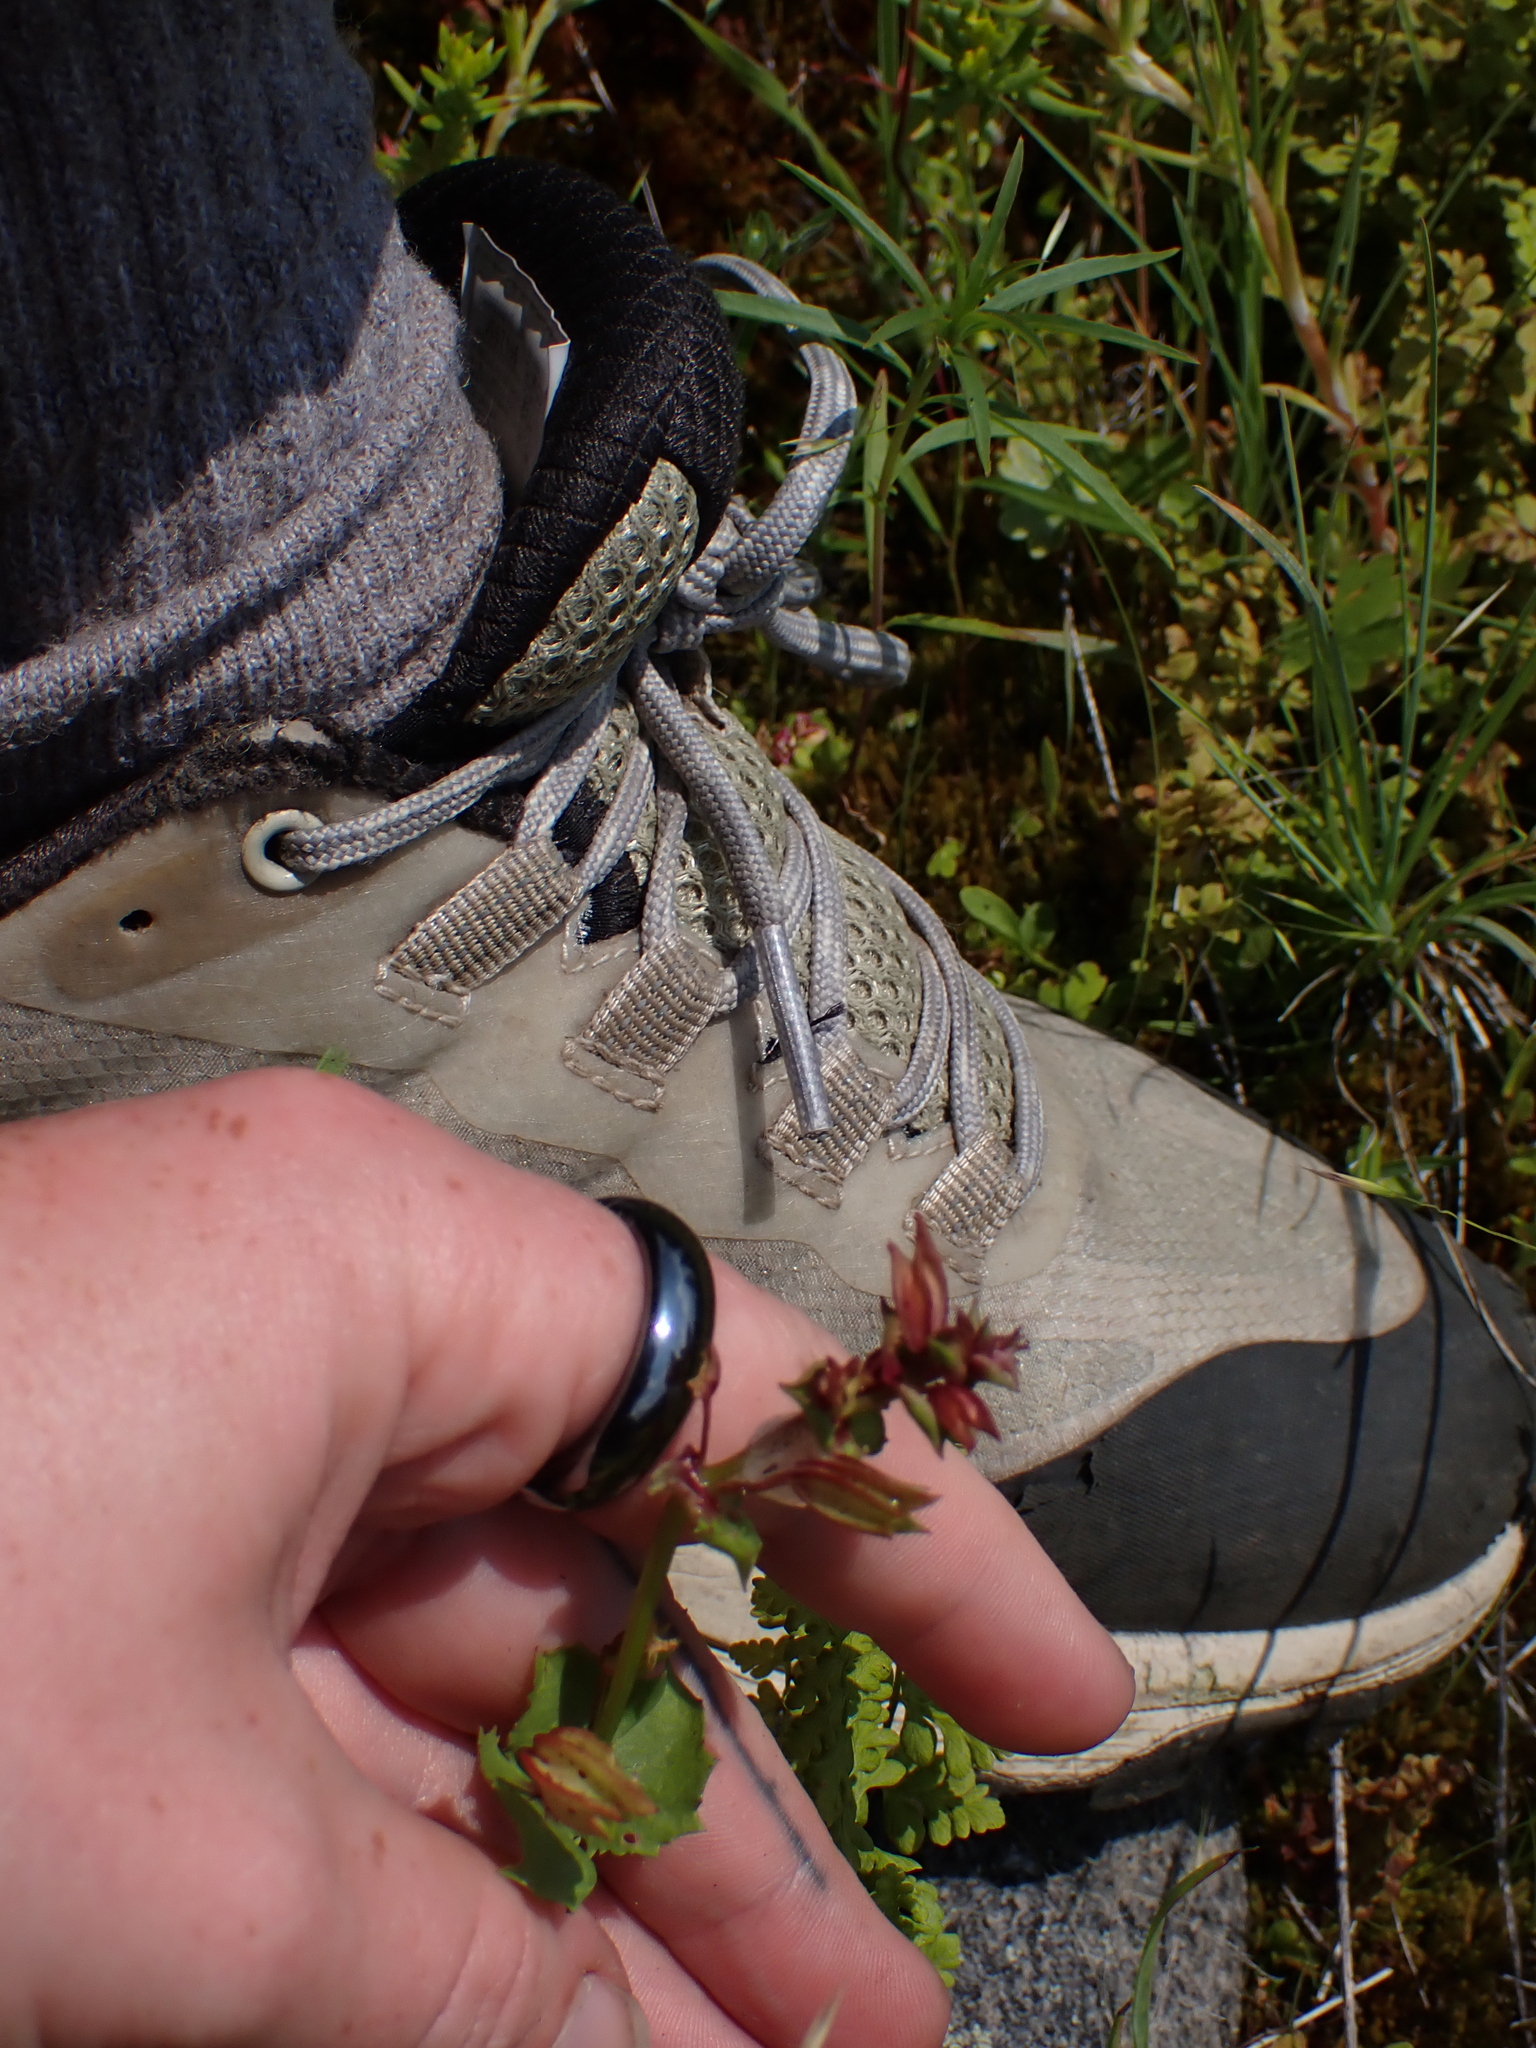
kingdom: Plantae
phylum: Tracheophyta
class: Magnoliopsida
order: Lamiales
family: Phrymaceae
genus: Erythranthe
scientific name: Erythranthe nasuta
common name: Sooke monkeyflower
